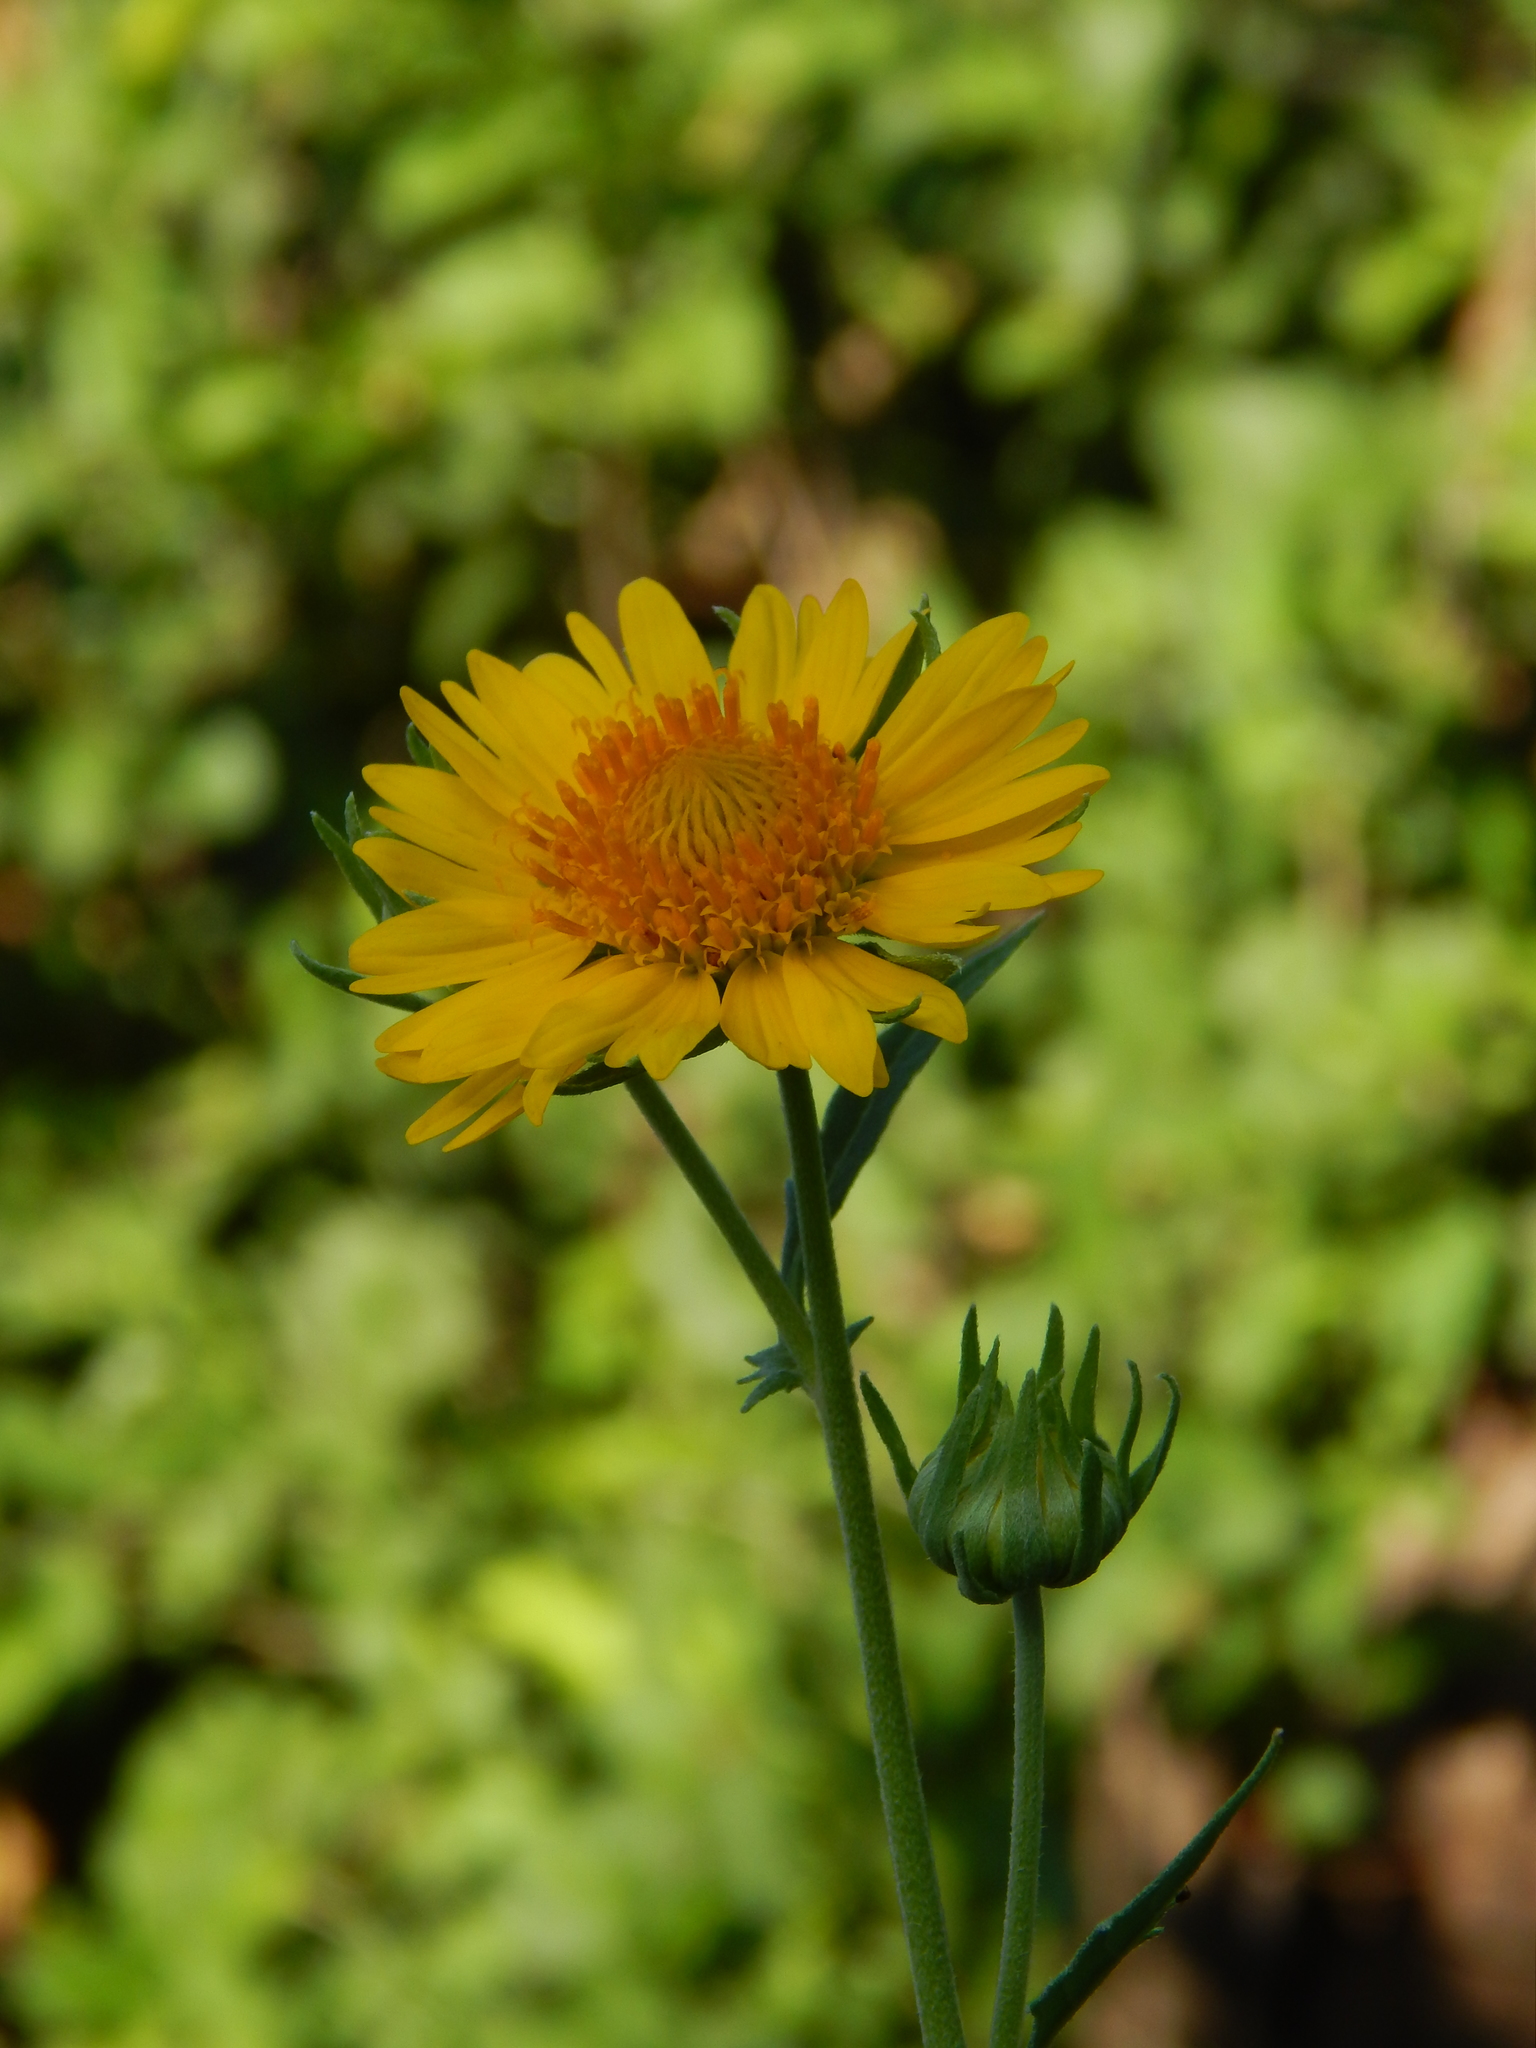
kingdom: Plantae
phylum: Tracheophyta
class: Magnoliopsida
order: Asterales
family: Asteraceae
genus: Verbesina
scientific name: Verbesina encelioides
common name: Golden crownbeard
